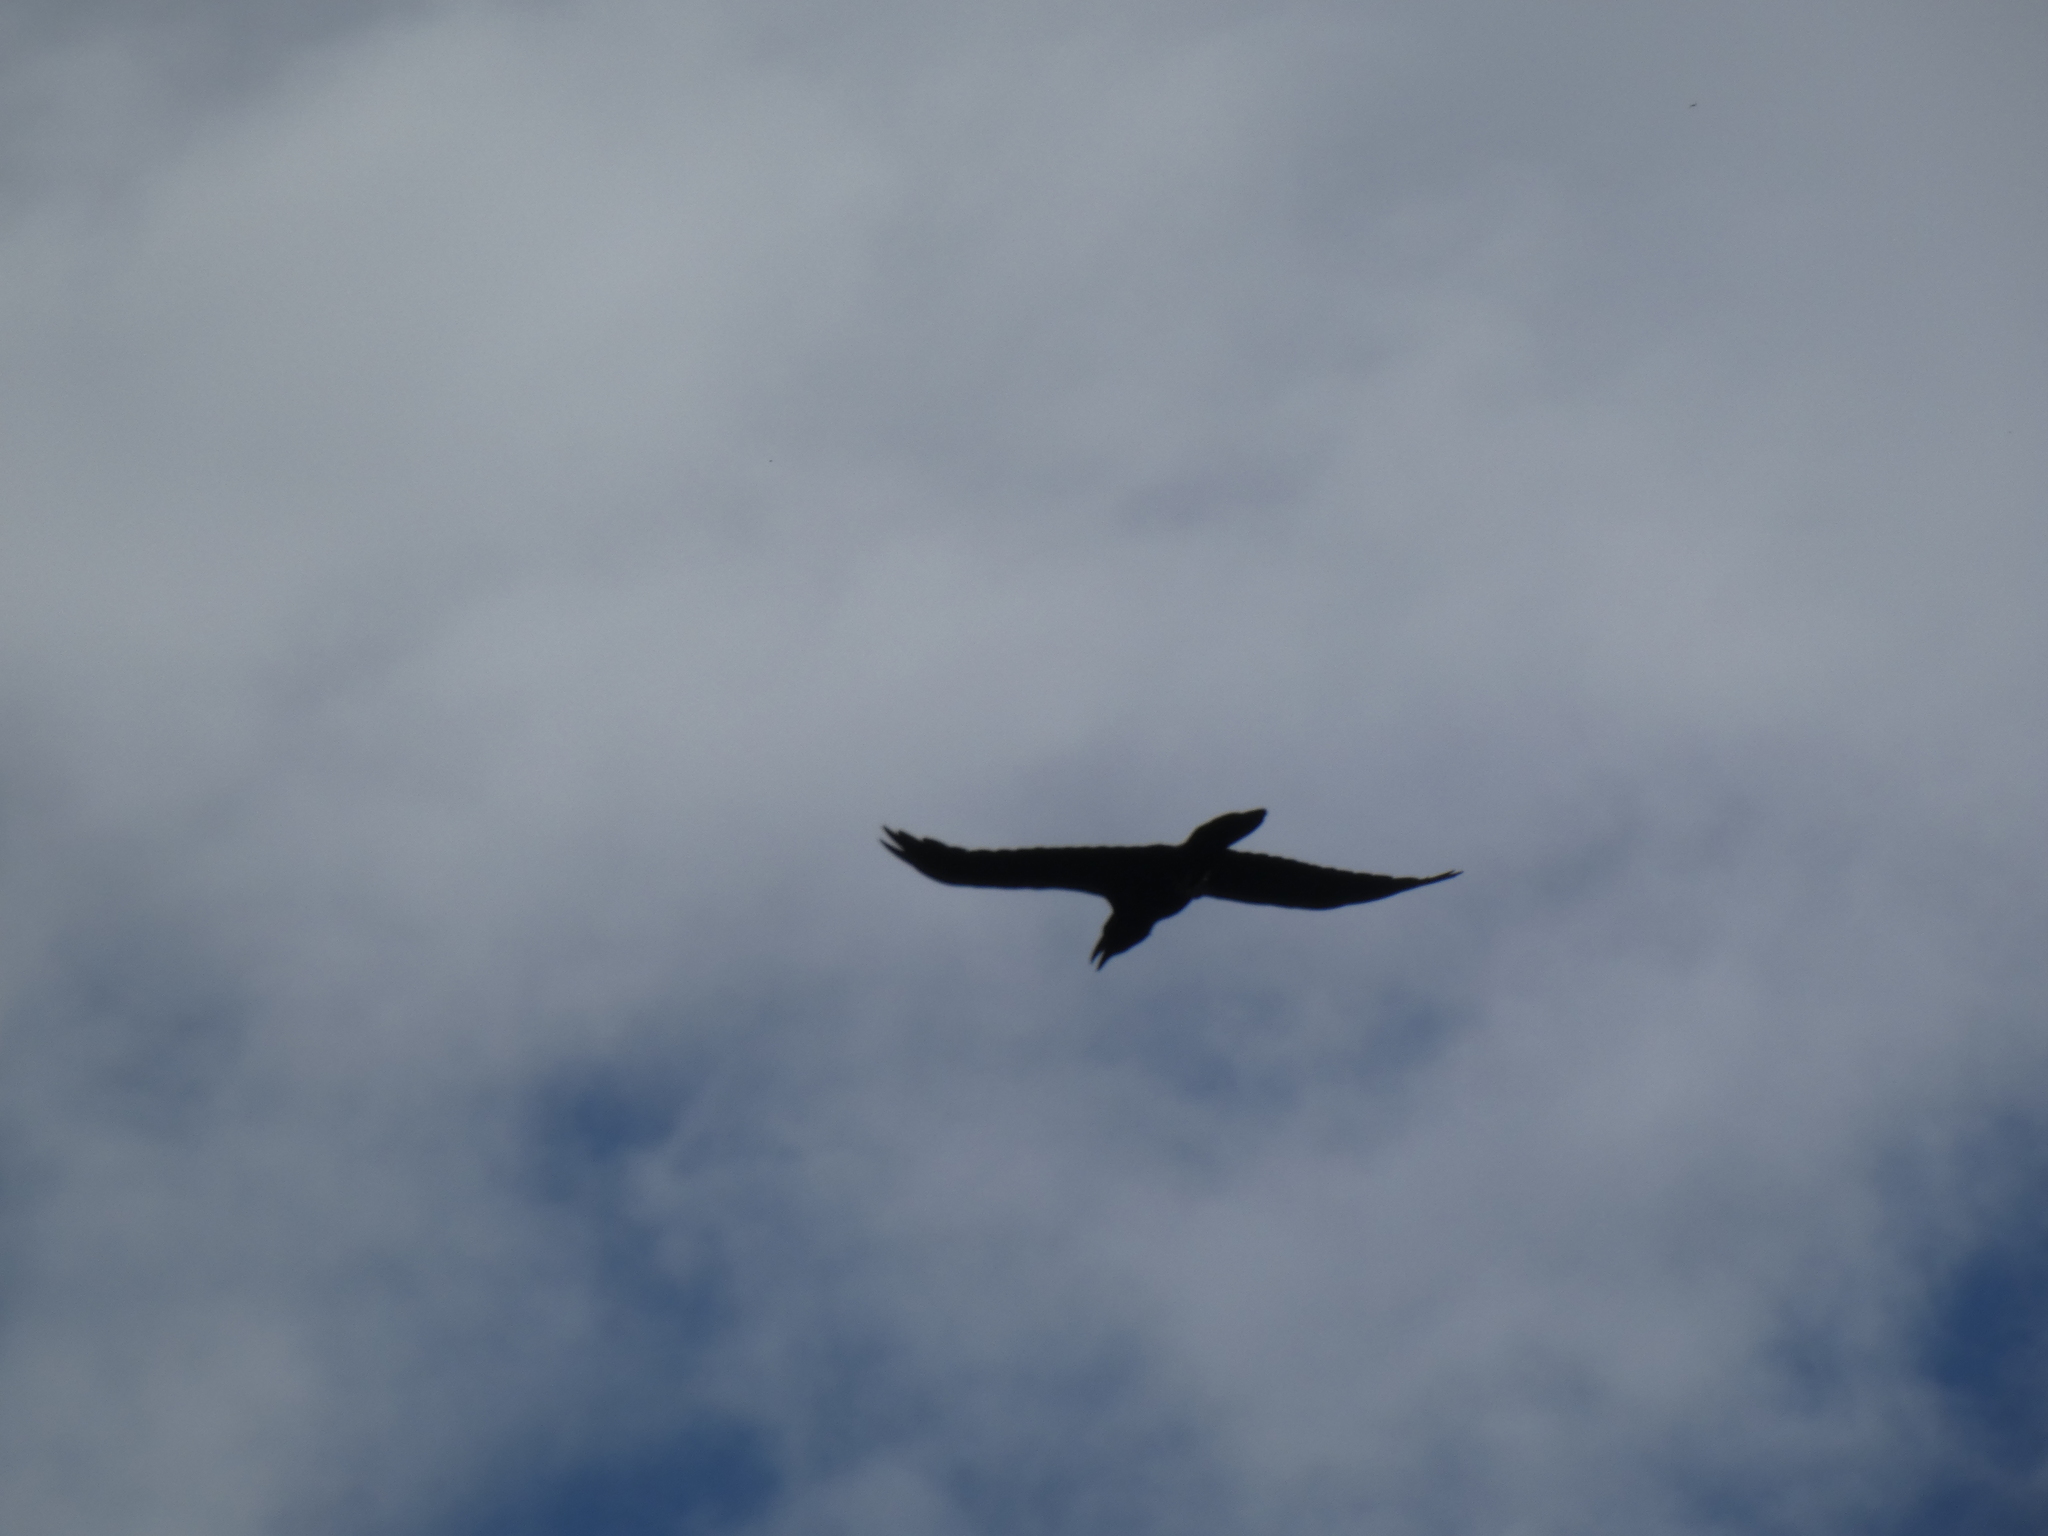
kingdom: Animalia
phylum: Chordata
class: Aves
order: Passeriformes
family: Corvidae
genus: Corvus
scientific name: Corvus corax
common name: Common raven
